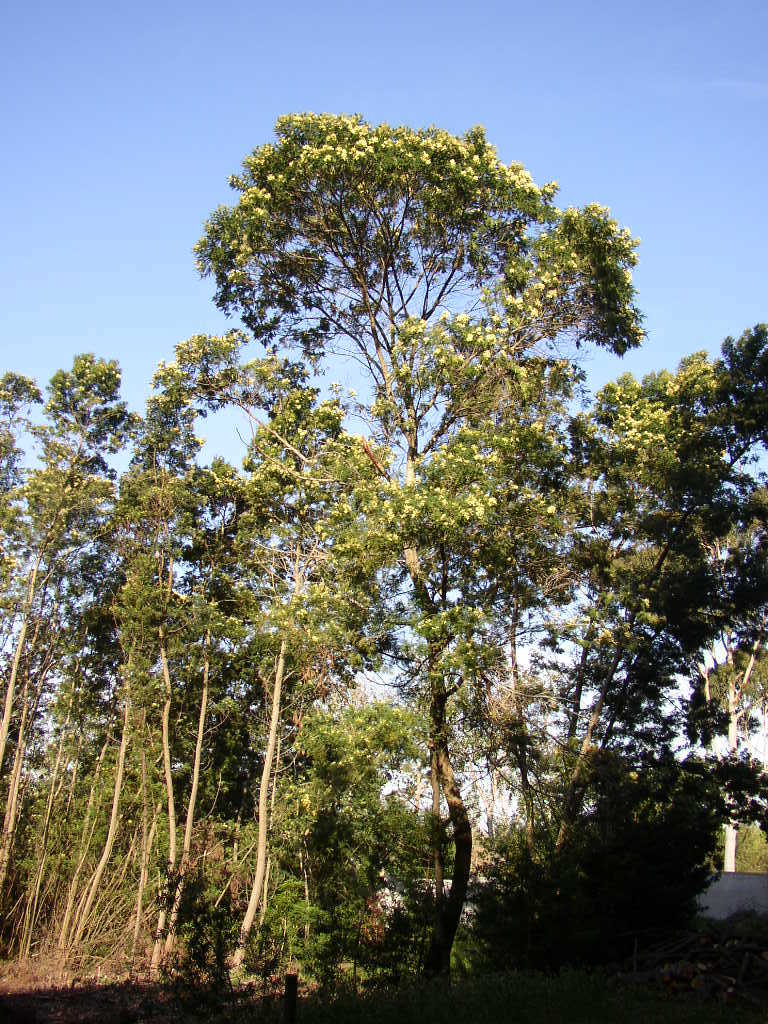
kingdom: Plantae
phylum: Tracheophyta
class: Magnoliopsida
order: Fabales
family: Fabaceae
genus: Acacia
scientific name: Acacia mearnsii
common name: Black wattle
